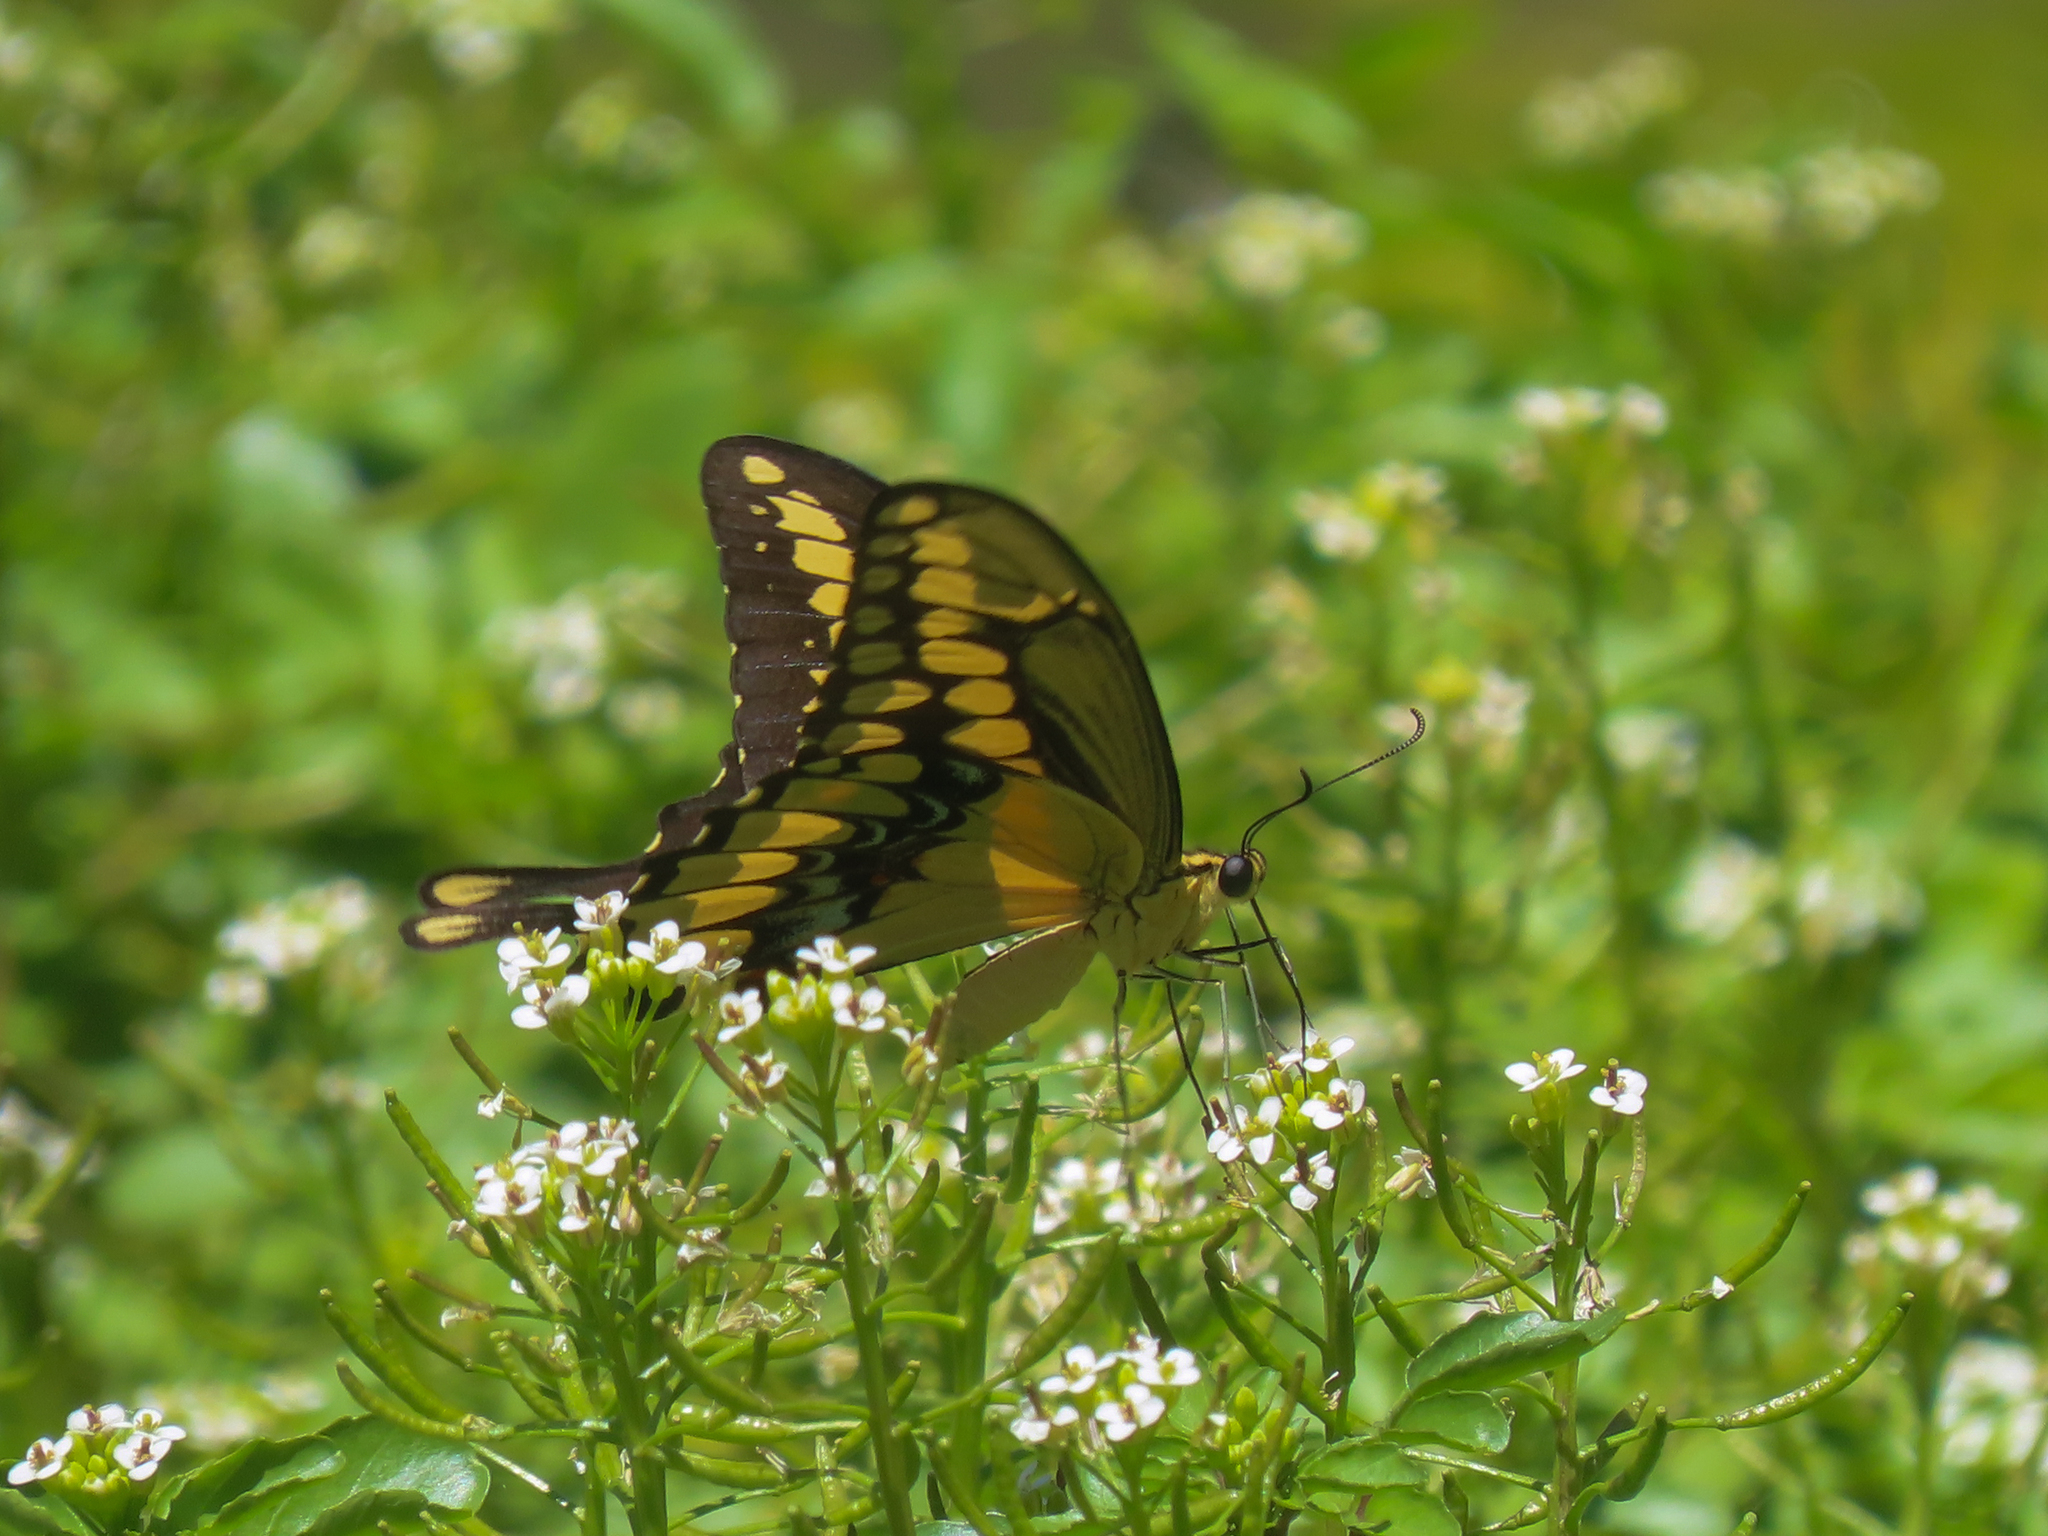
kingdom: Animalia
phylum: Arthropoda
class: Insecta
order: Lepidoptera
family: Papilionidae
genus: Papilio
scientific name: Papilio rumiko
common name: Western giant swallowtail
